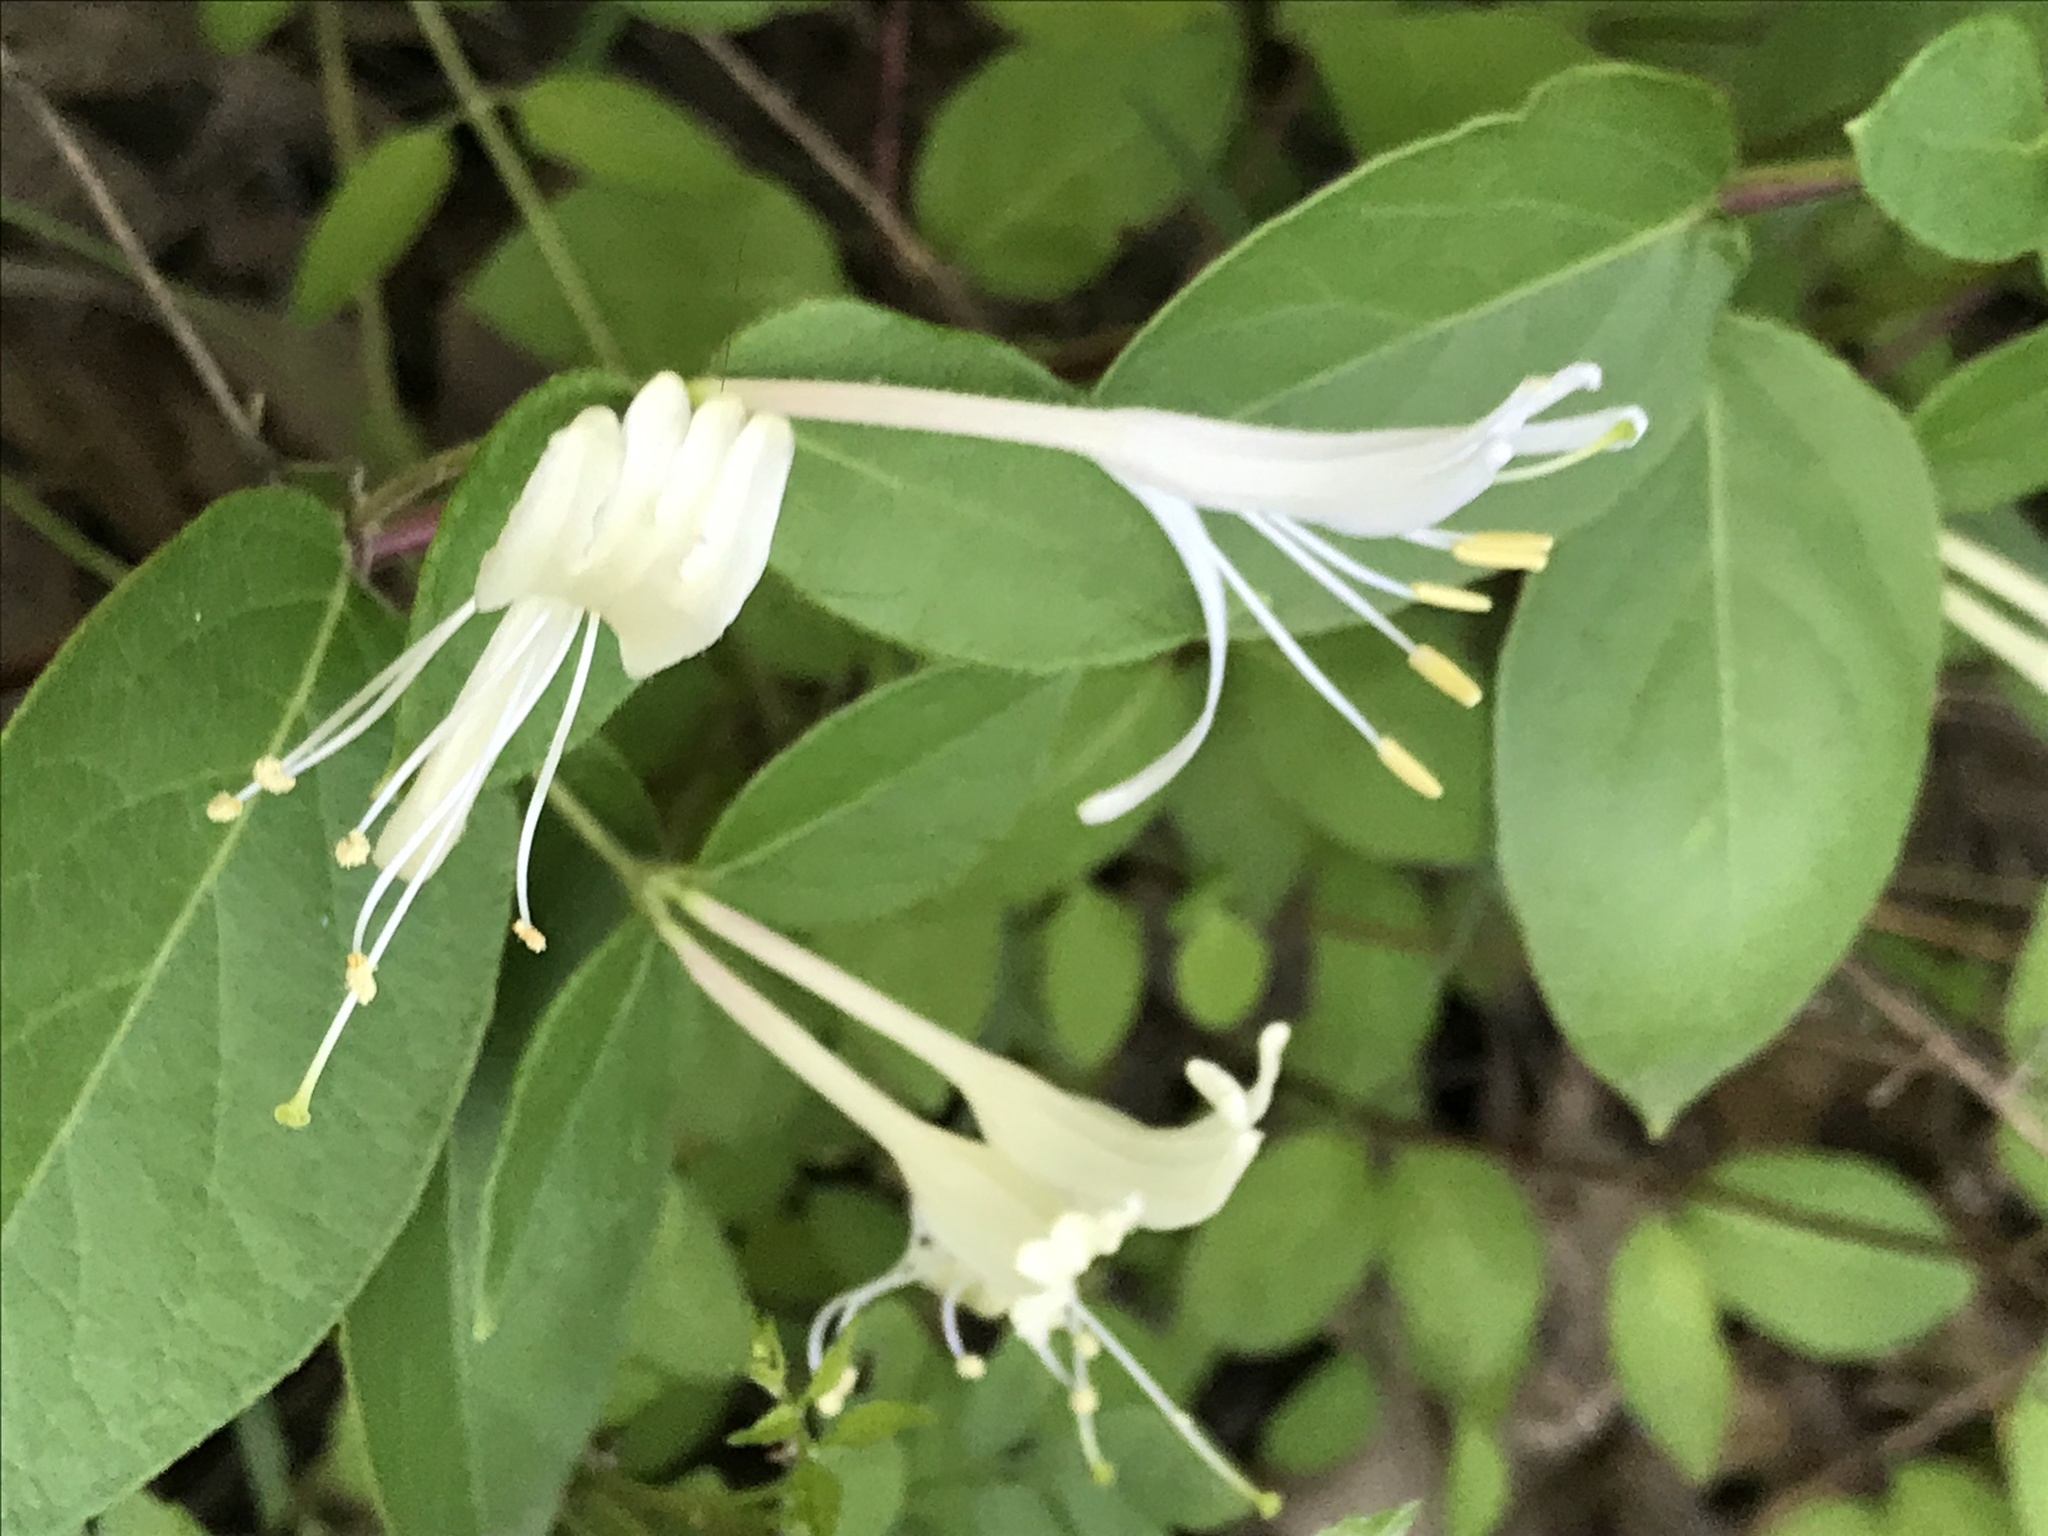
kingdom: Plantae
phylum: Tracheophyta
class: Magnoliopsida
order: Dipsacales
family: Caprifoliaceae
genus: Lonicera
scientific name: Lonicera japonica
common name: Japanese honeysuckle
